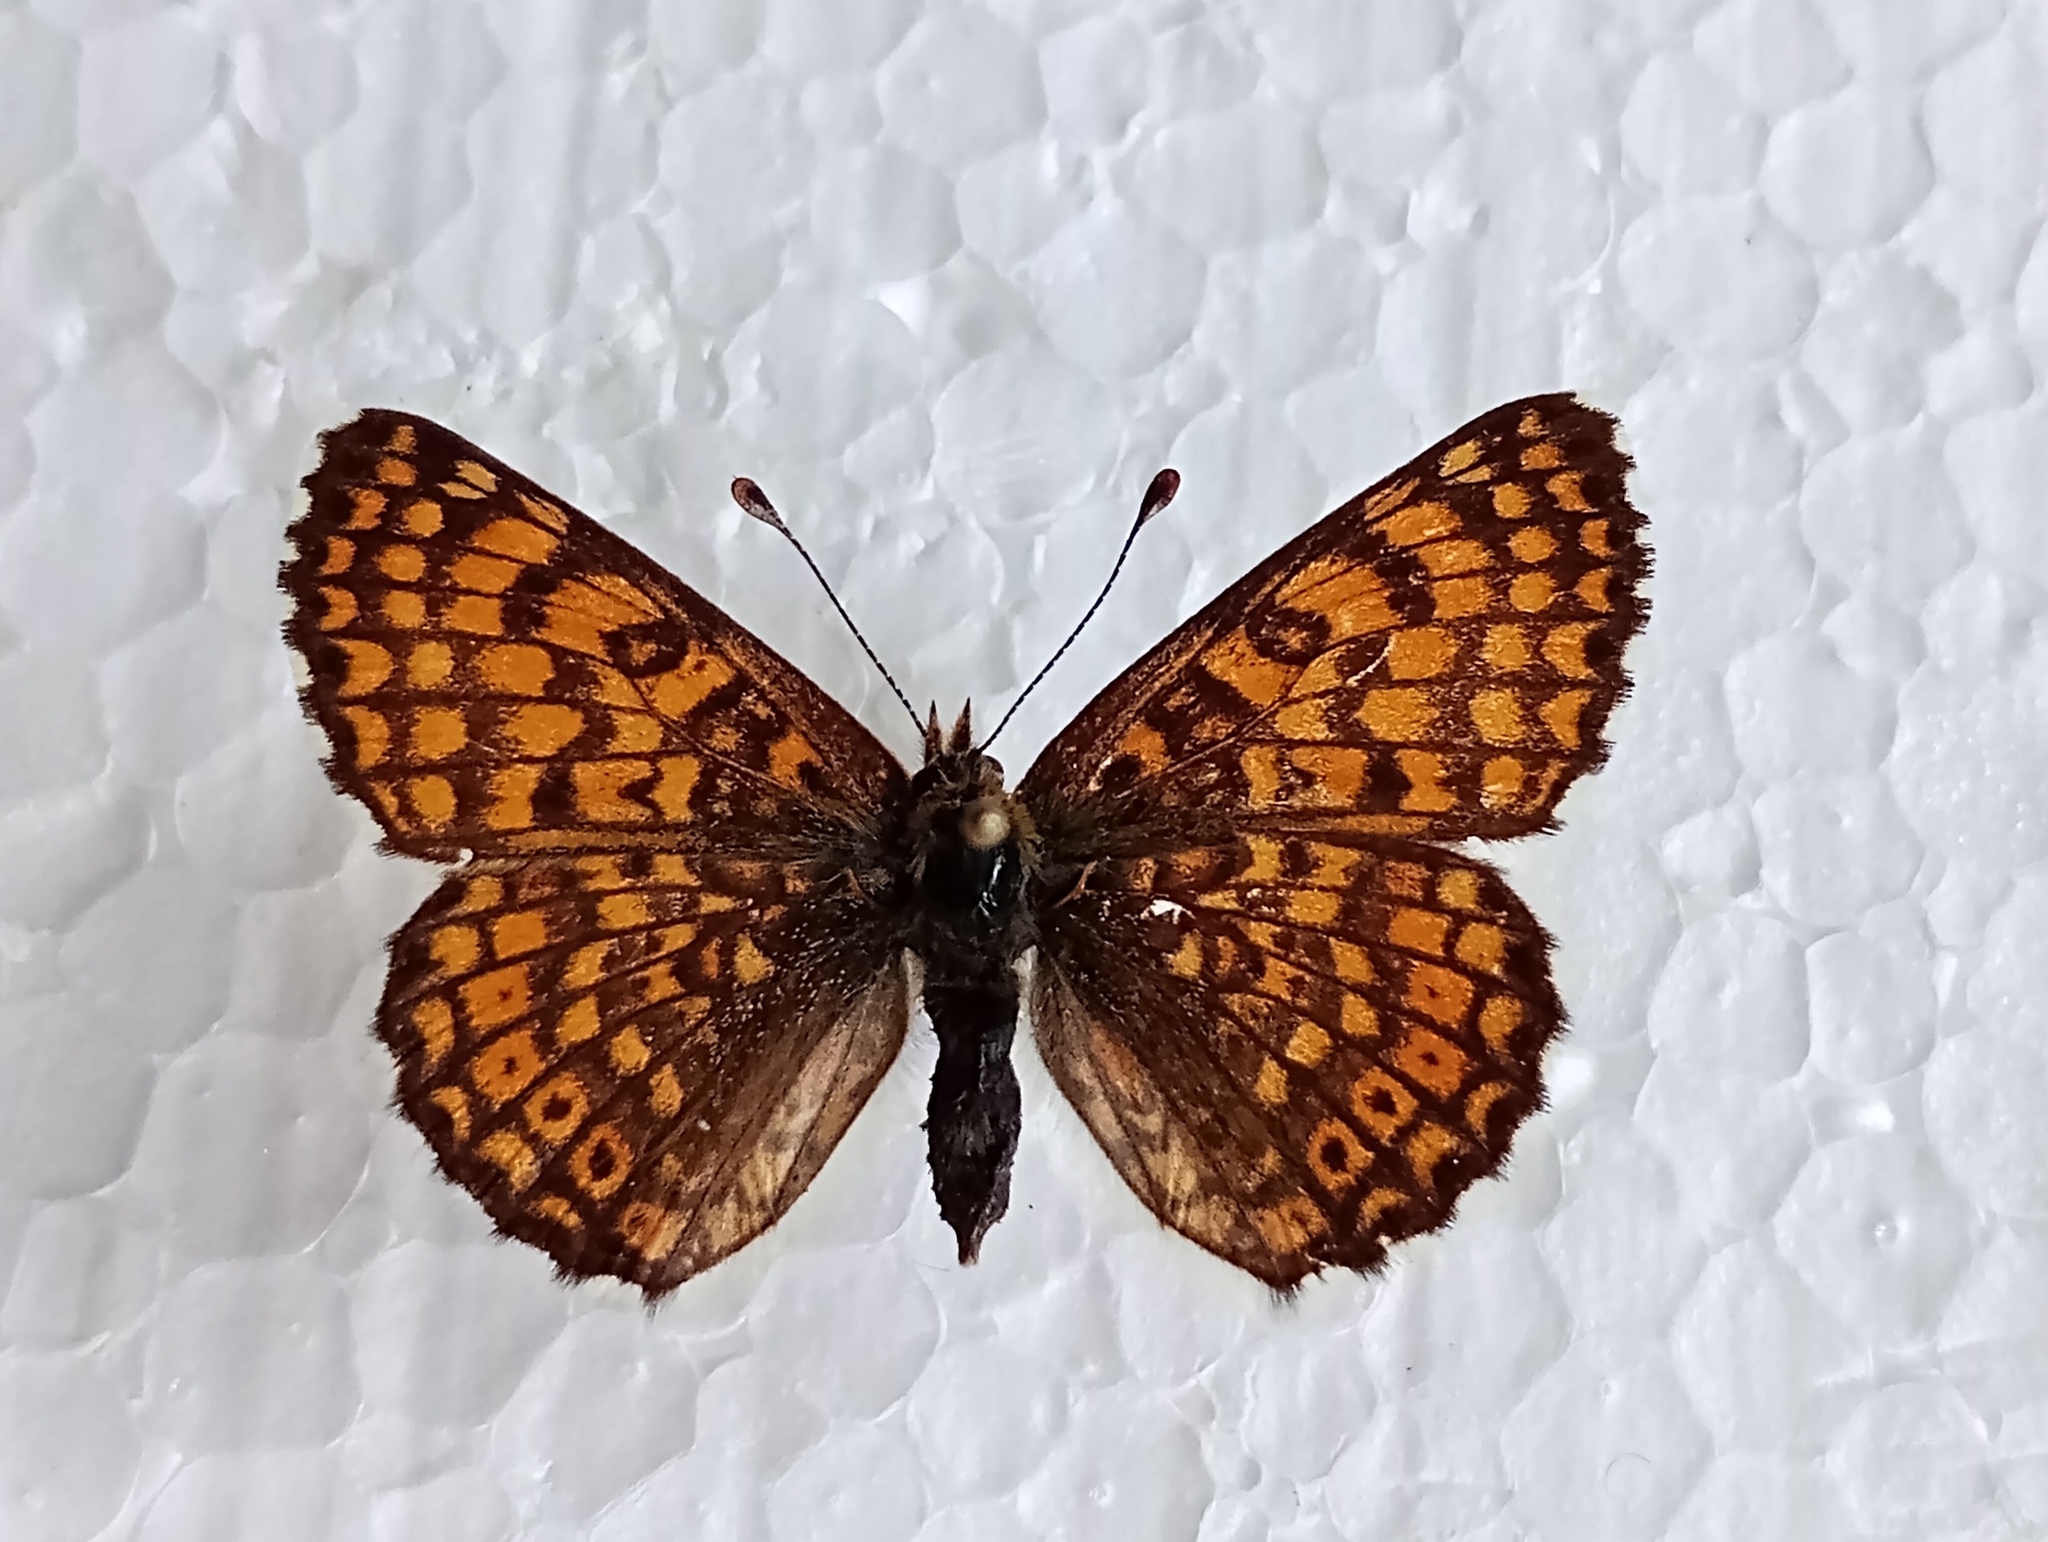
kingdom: Animalia
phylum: Arthropoda
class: Insecta
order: Lepidoptera
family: Nymphalidae
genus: Melitaea
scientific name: Melitaea cinxia
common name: Glanville fritillary
